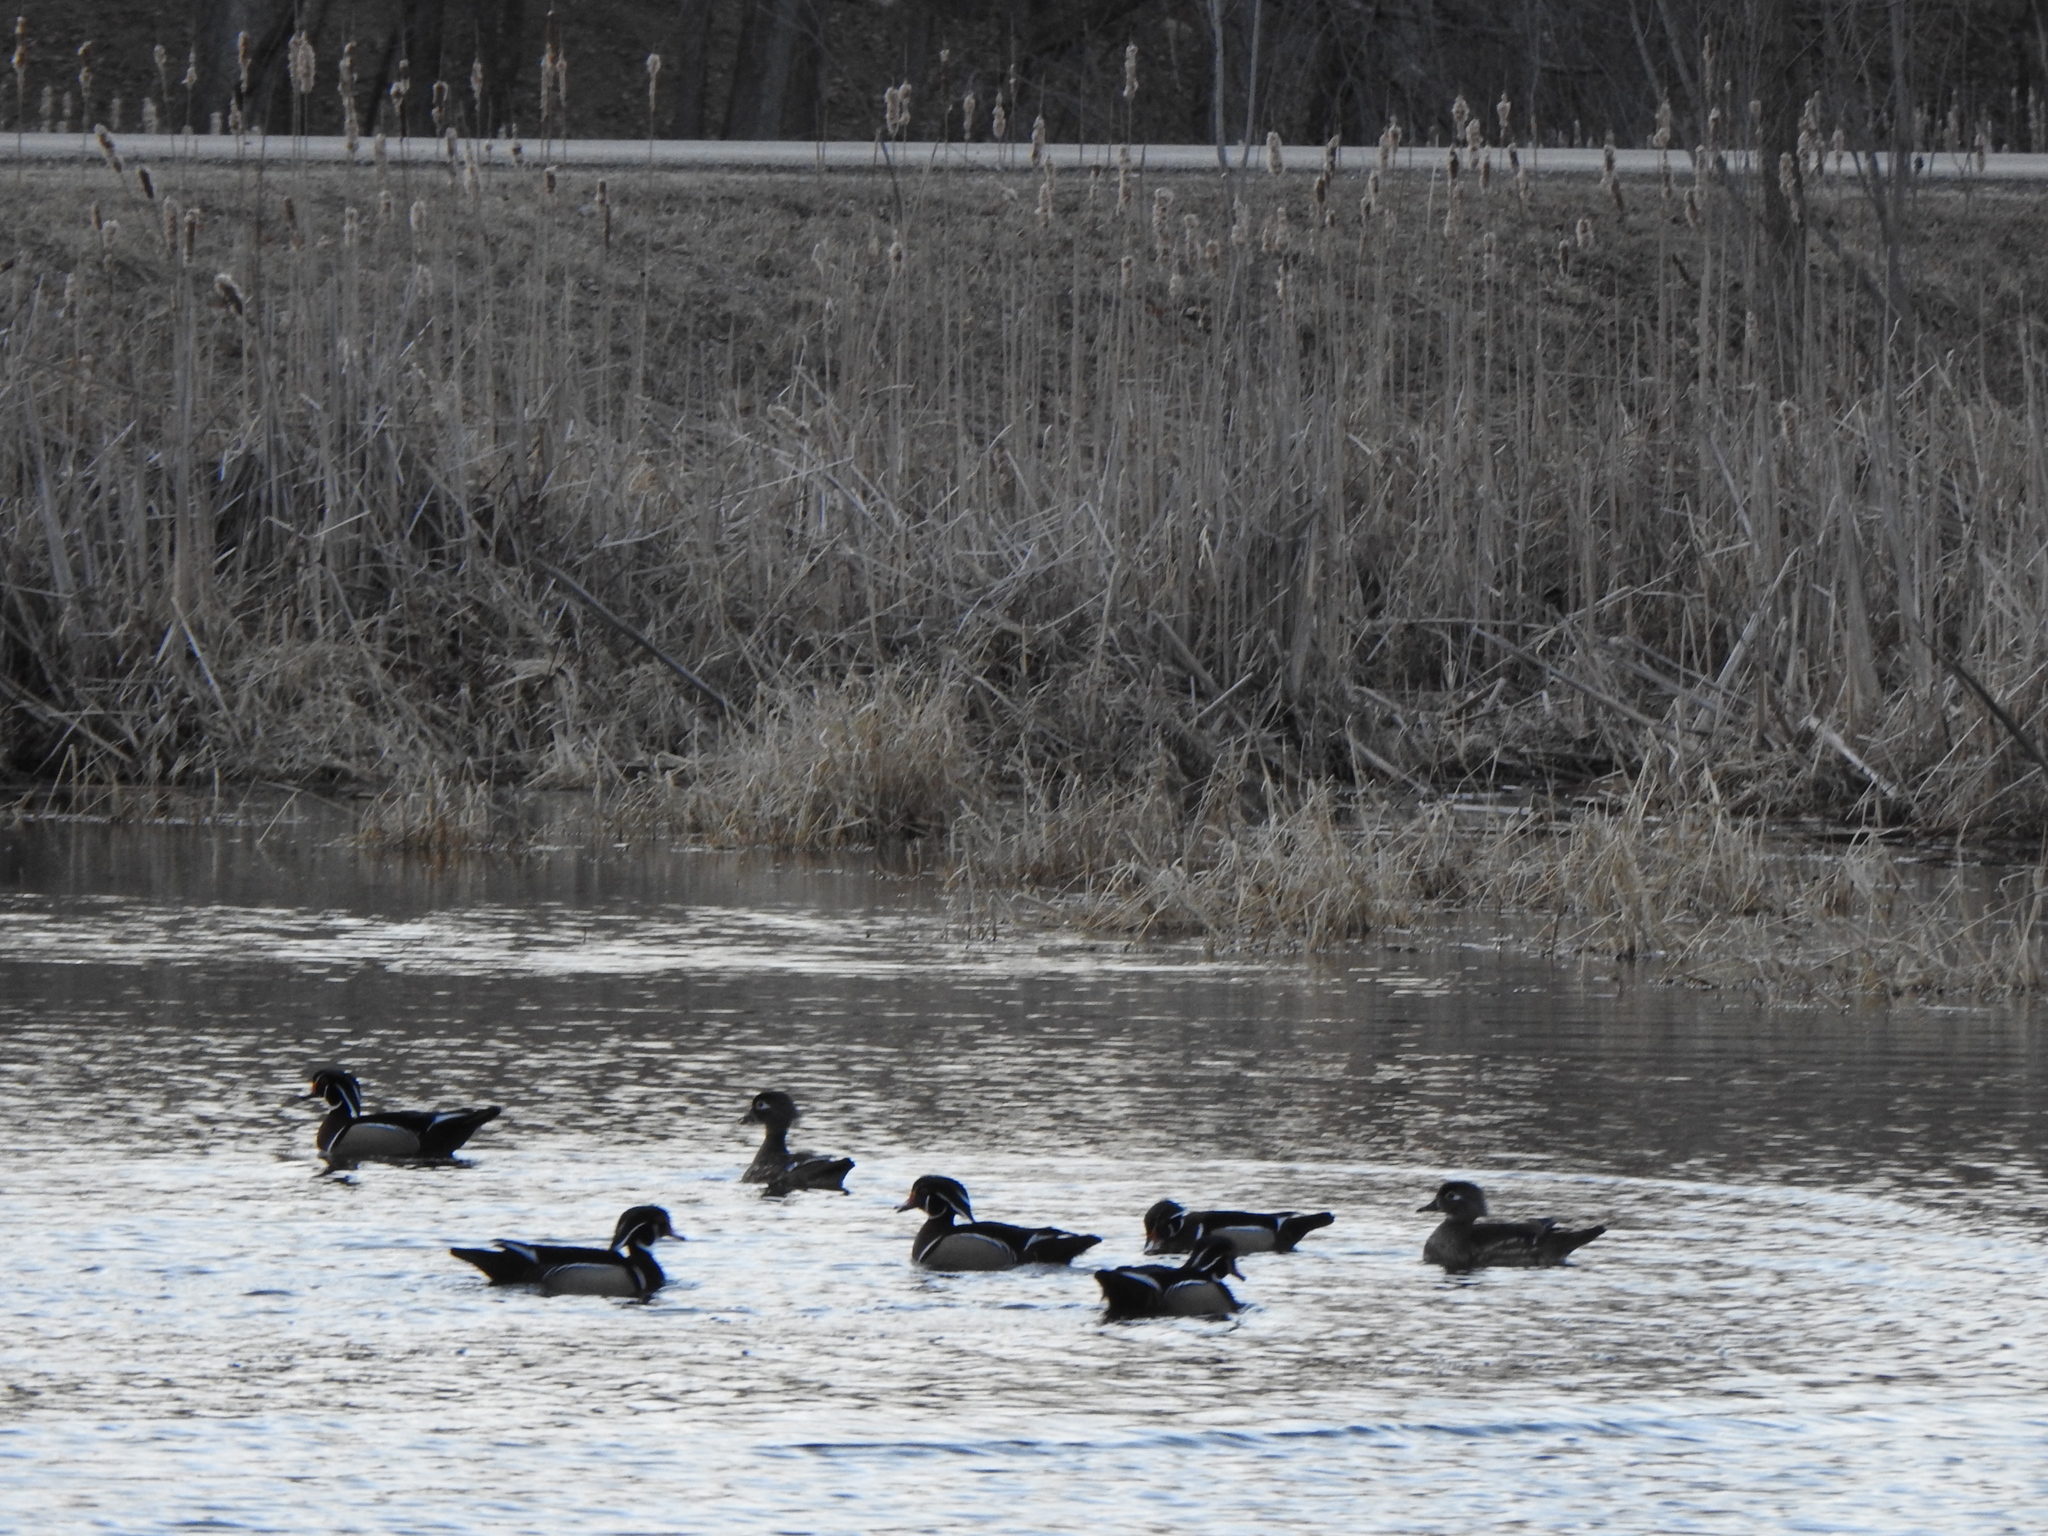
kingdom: Animalia
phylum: Chordata
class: Aves
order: Anseriformes
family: Anatidae
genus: Aix
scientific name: Aix sponsa
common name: Wood duck
